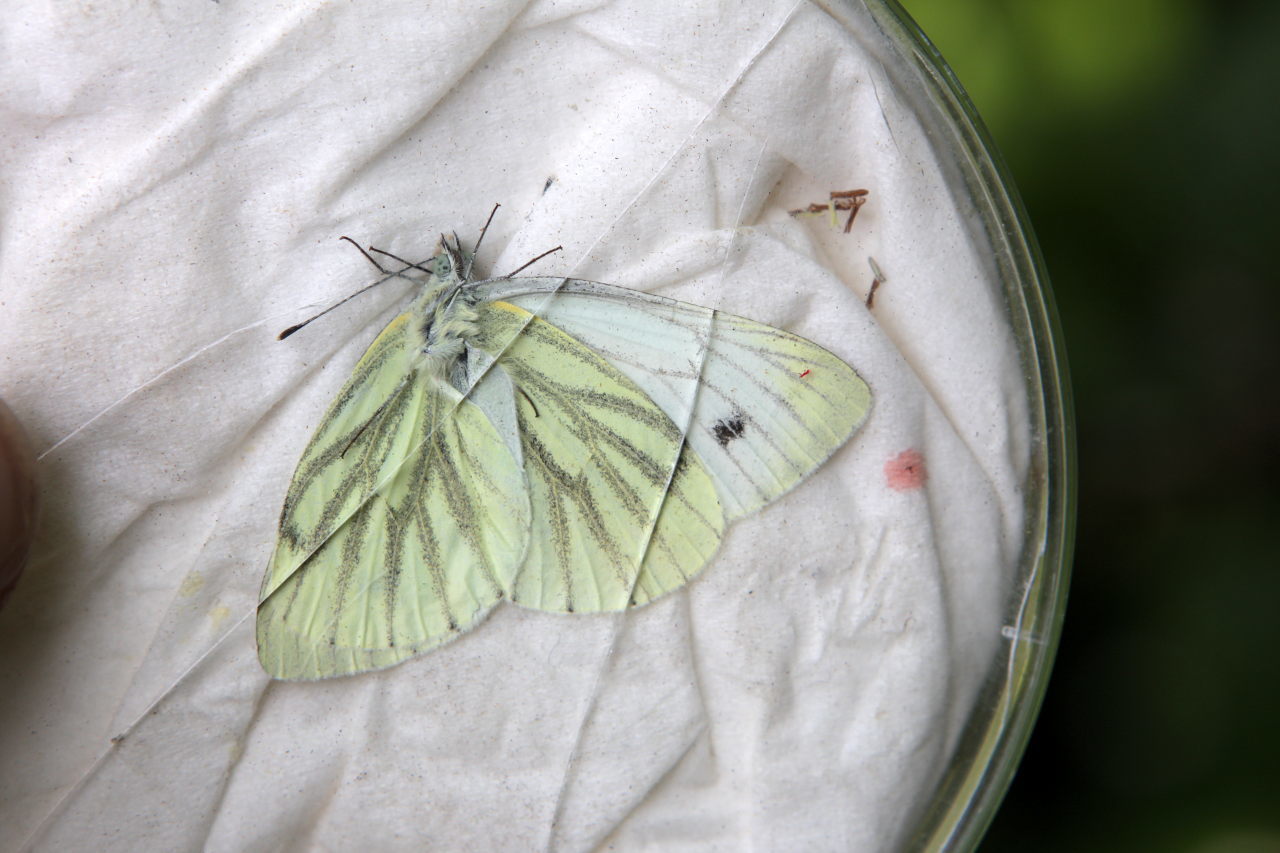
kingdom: Animalia
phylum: Arthropoda
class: Insecta
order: Lepidoptera
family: Pieridae
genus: Pieris
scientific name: Pieris napi
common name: Green-veined white
